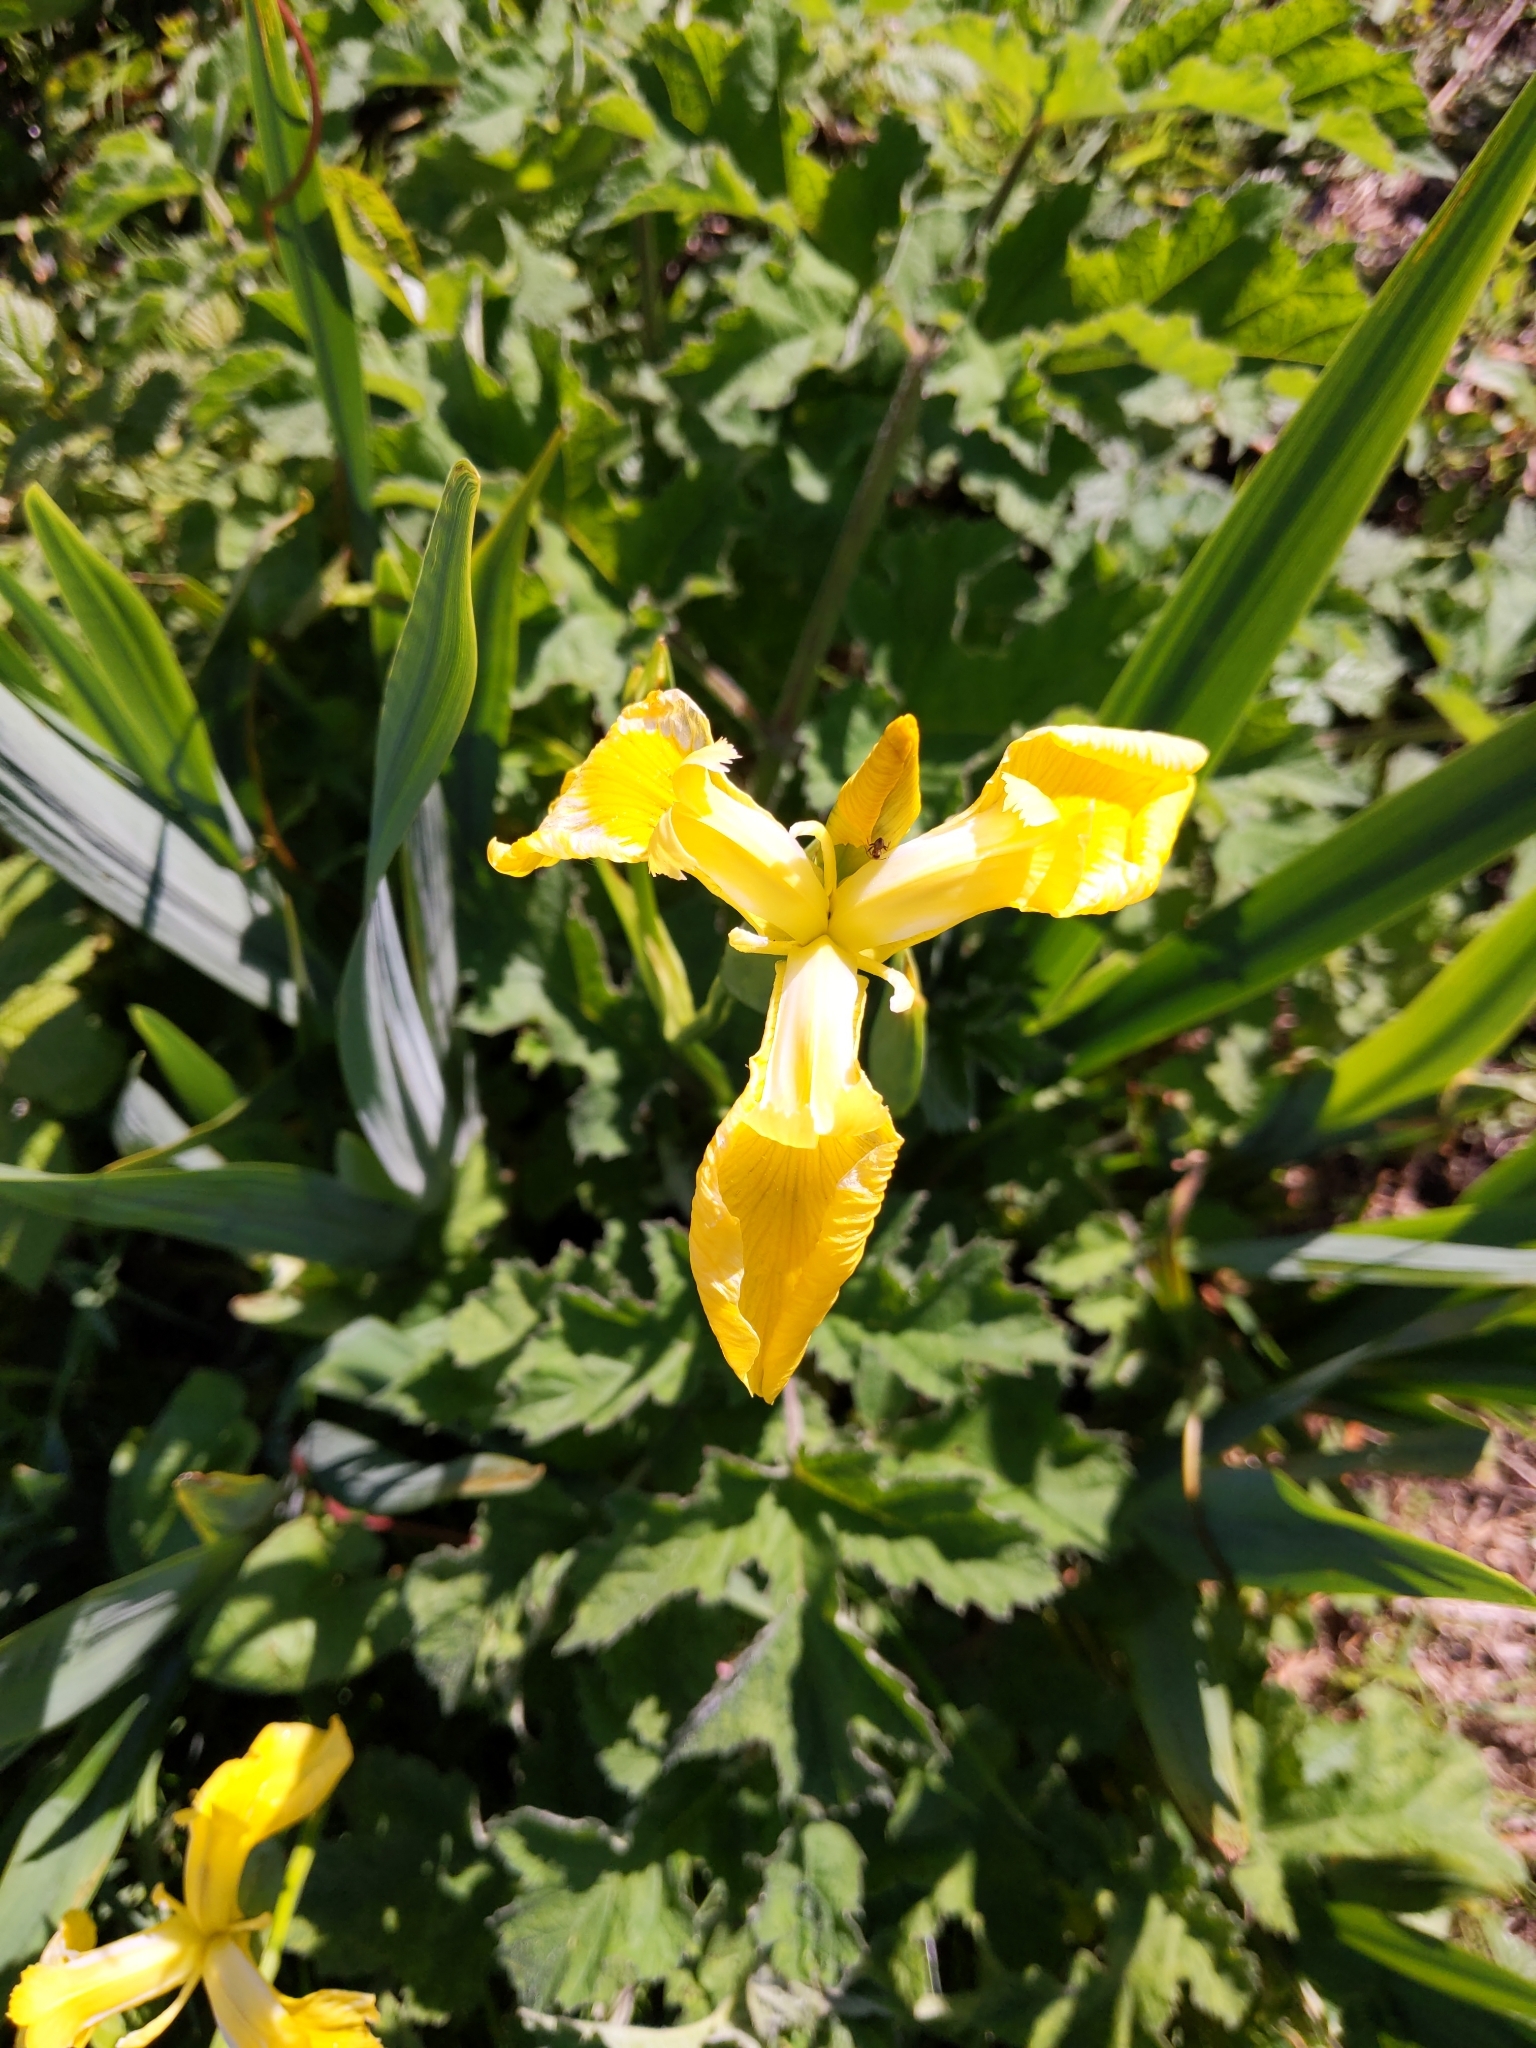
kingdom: Plantae
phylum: Tracheophyta
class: Liliopsida
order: Asparagales
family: Iridaceae
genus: Iris
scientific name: Iris pseudacorus
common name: Yellow flag
